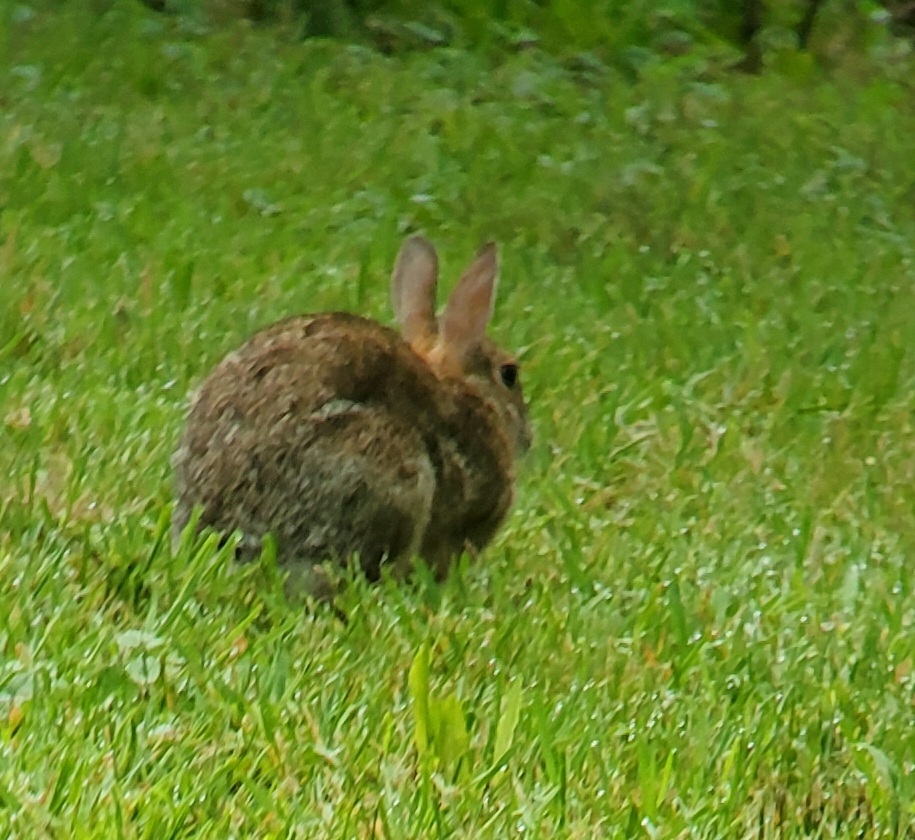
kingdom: Animalia
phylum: Chordata
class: Mammalia
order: Lagomorpha
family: Leporidae
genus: Sylvilagus
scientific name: Sylvilagus floridanus
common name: Eastern cottontail
